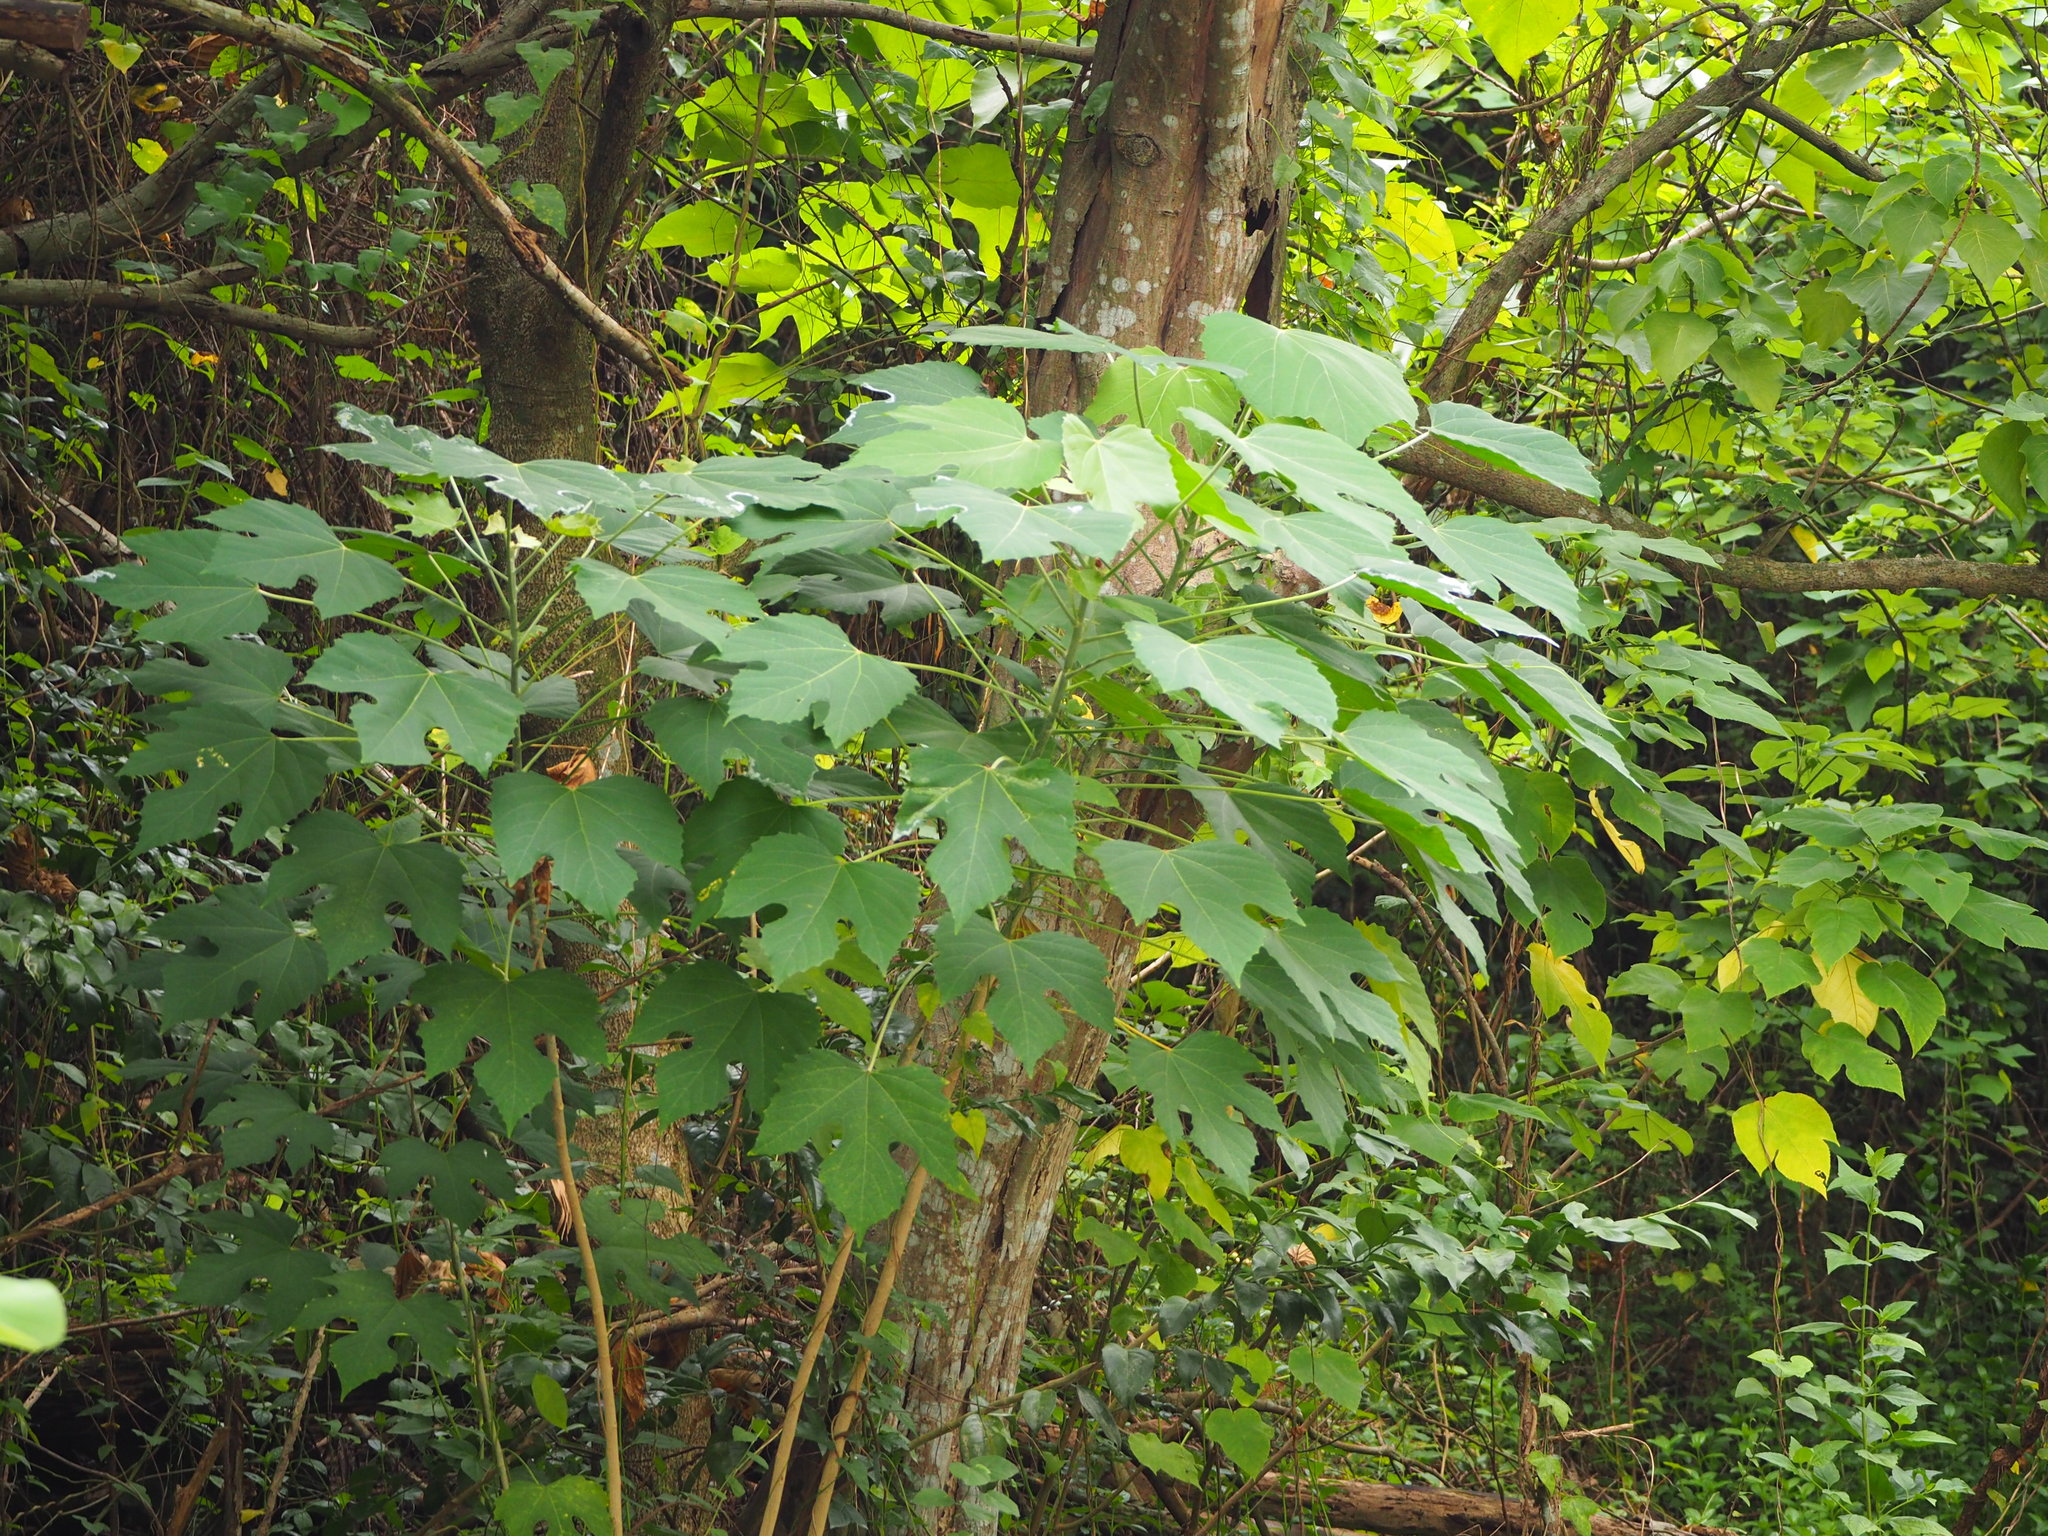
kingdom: Plantae
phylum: Tracheophyta
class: Magnoliopsida
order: Malpighiales
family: Euphorbiaceae
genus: Melanolepis
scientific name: Melanolepis multiglandulosa
